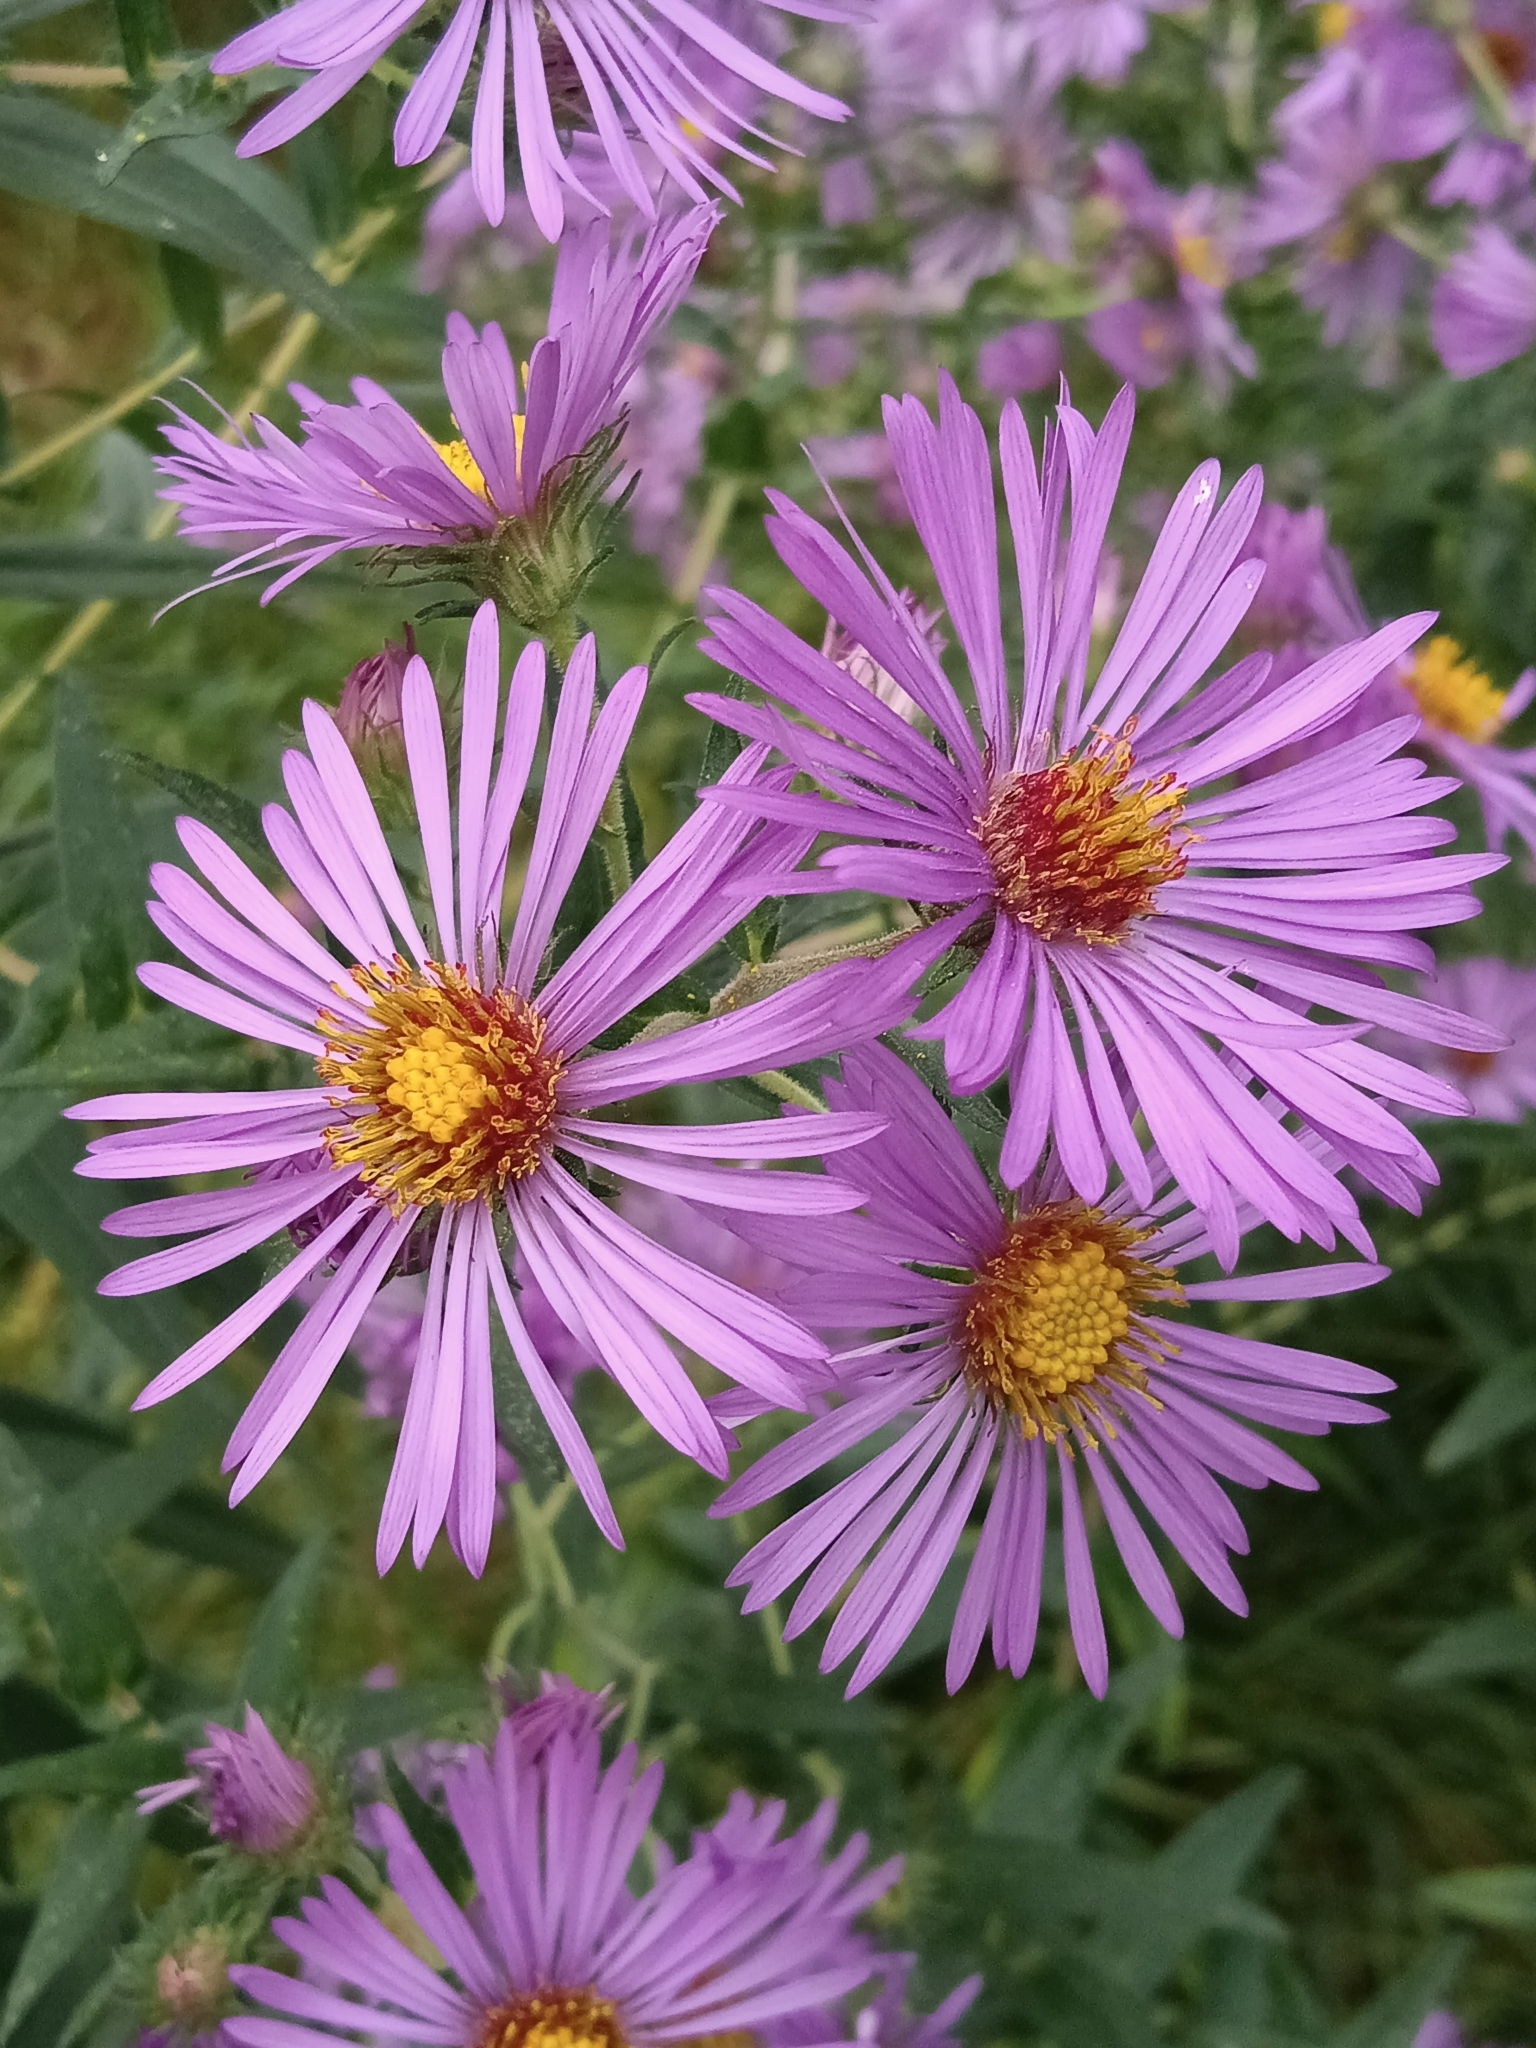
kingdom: Plantae
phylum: Tracheophyta
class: Magnoliopsida
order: Asterales
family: Asteraceae
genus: Symphyotrichum
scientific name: Symphyotrichum novae-angliae
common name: Michaelmas daisy
